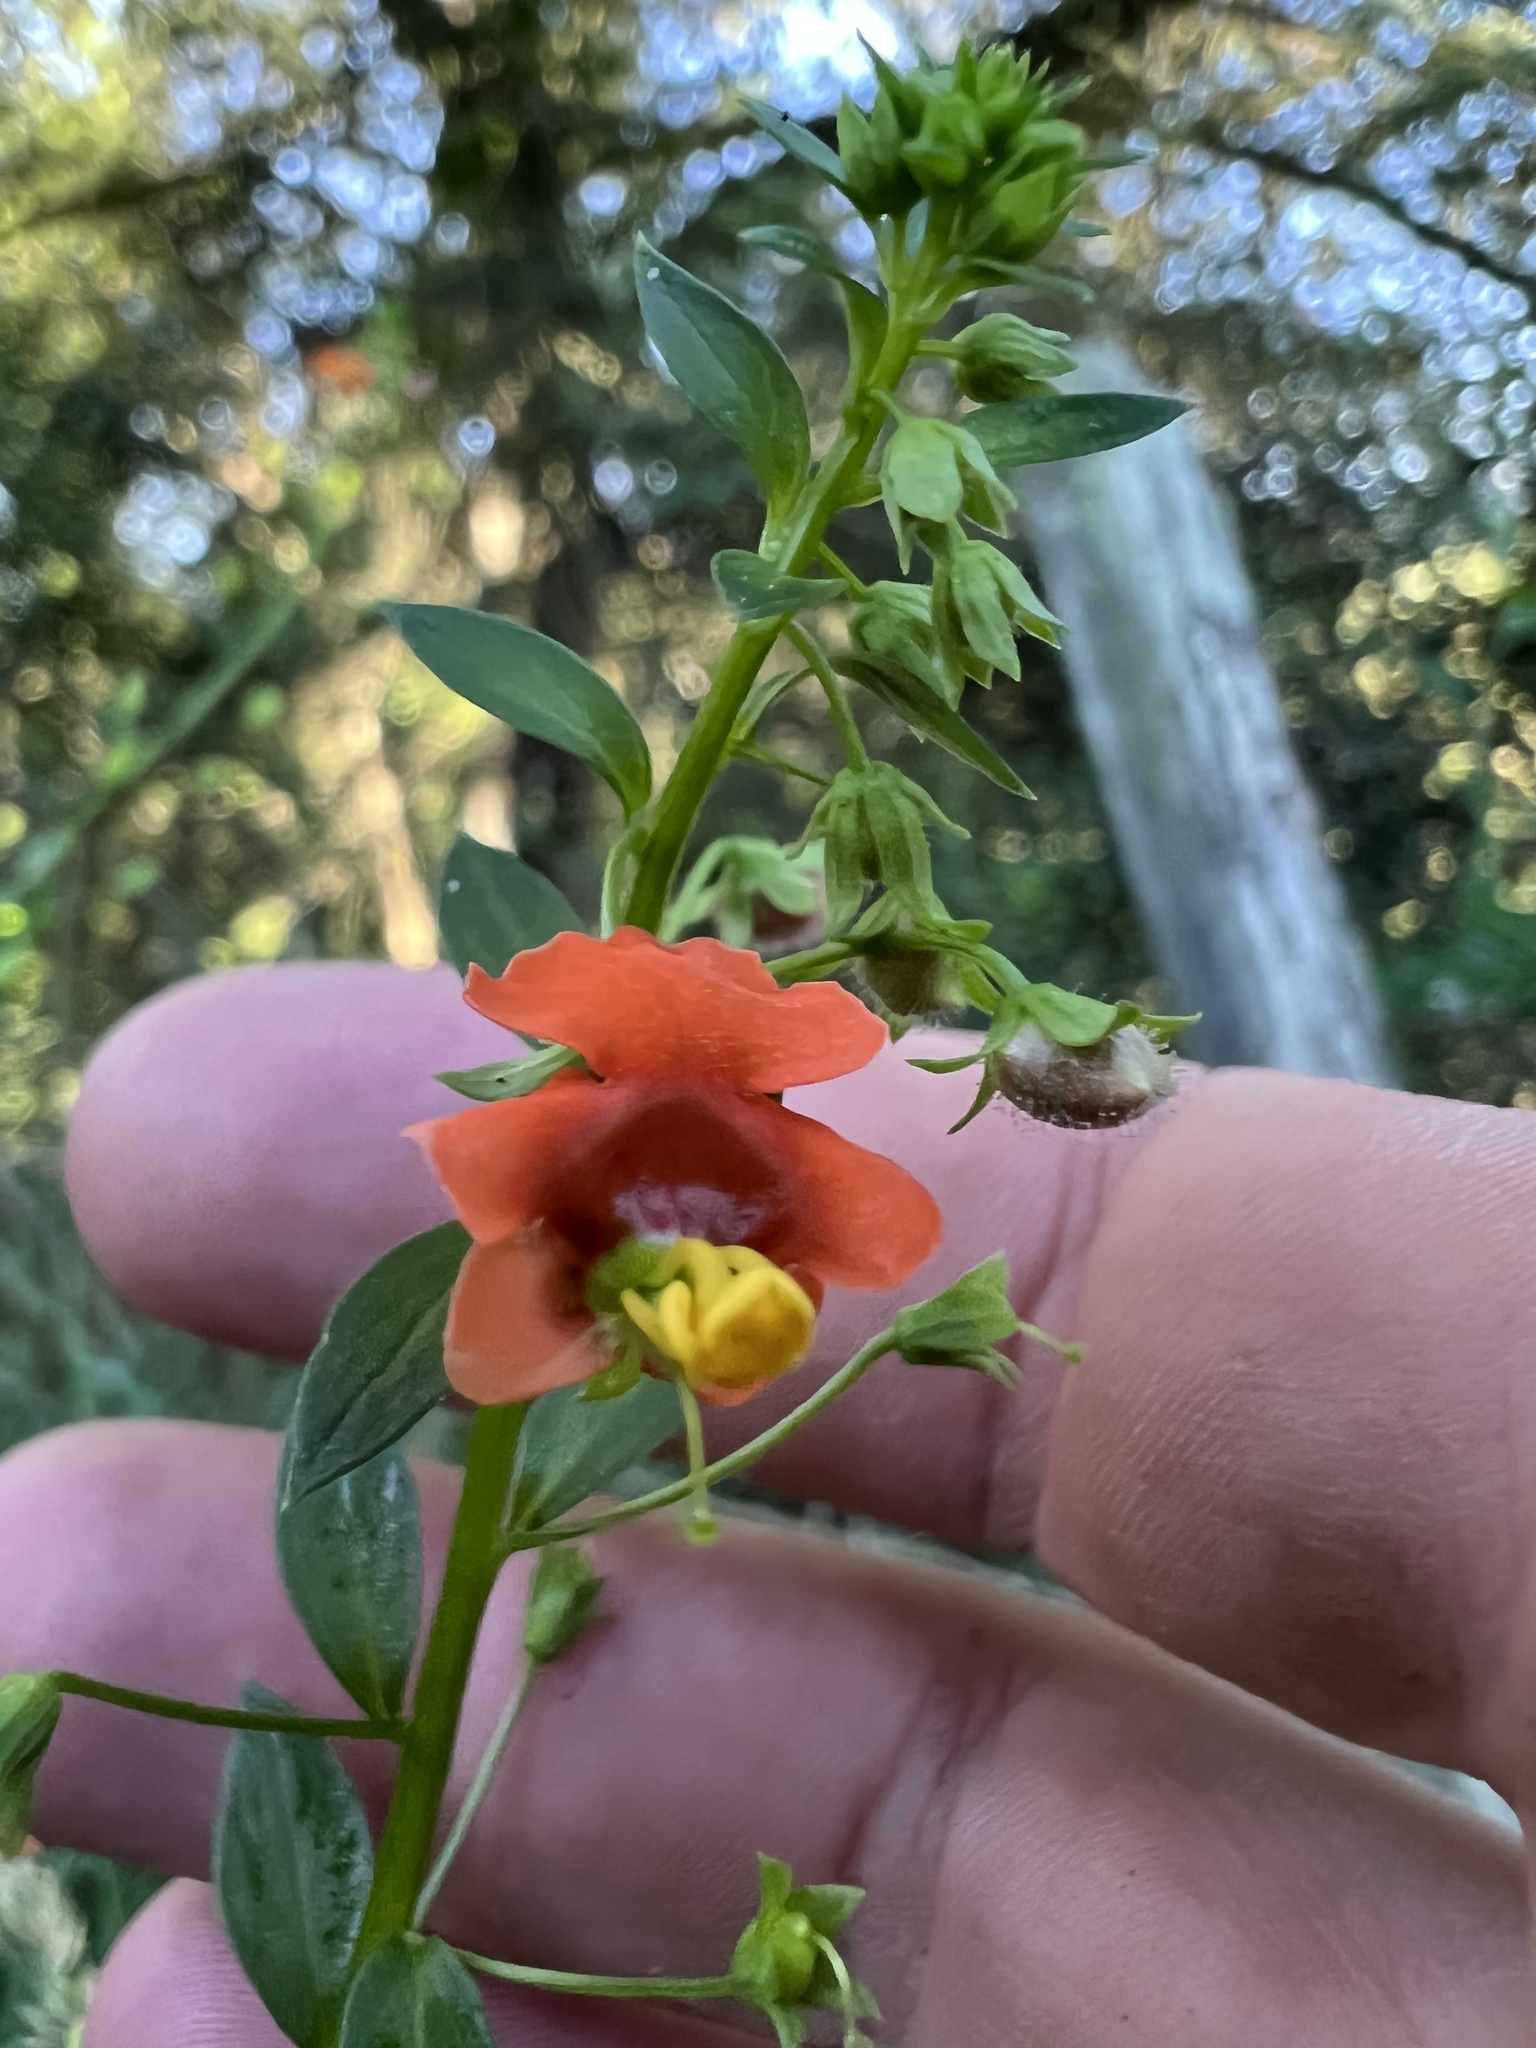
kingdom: Plantae
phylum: Tracheophyta
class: Magnoliopsida
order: Lamiales
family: Scrophulariaceae
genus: Alonsoa
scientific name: Alonsoa meridionalis
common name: Maskflower
